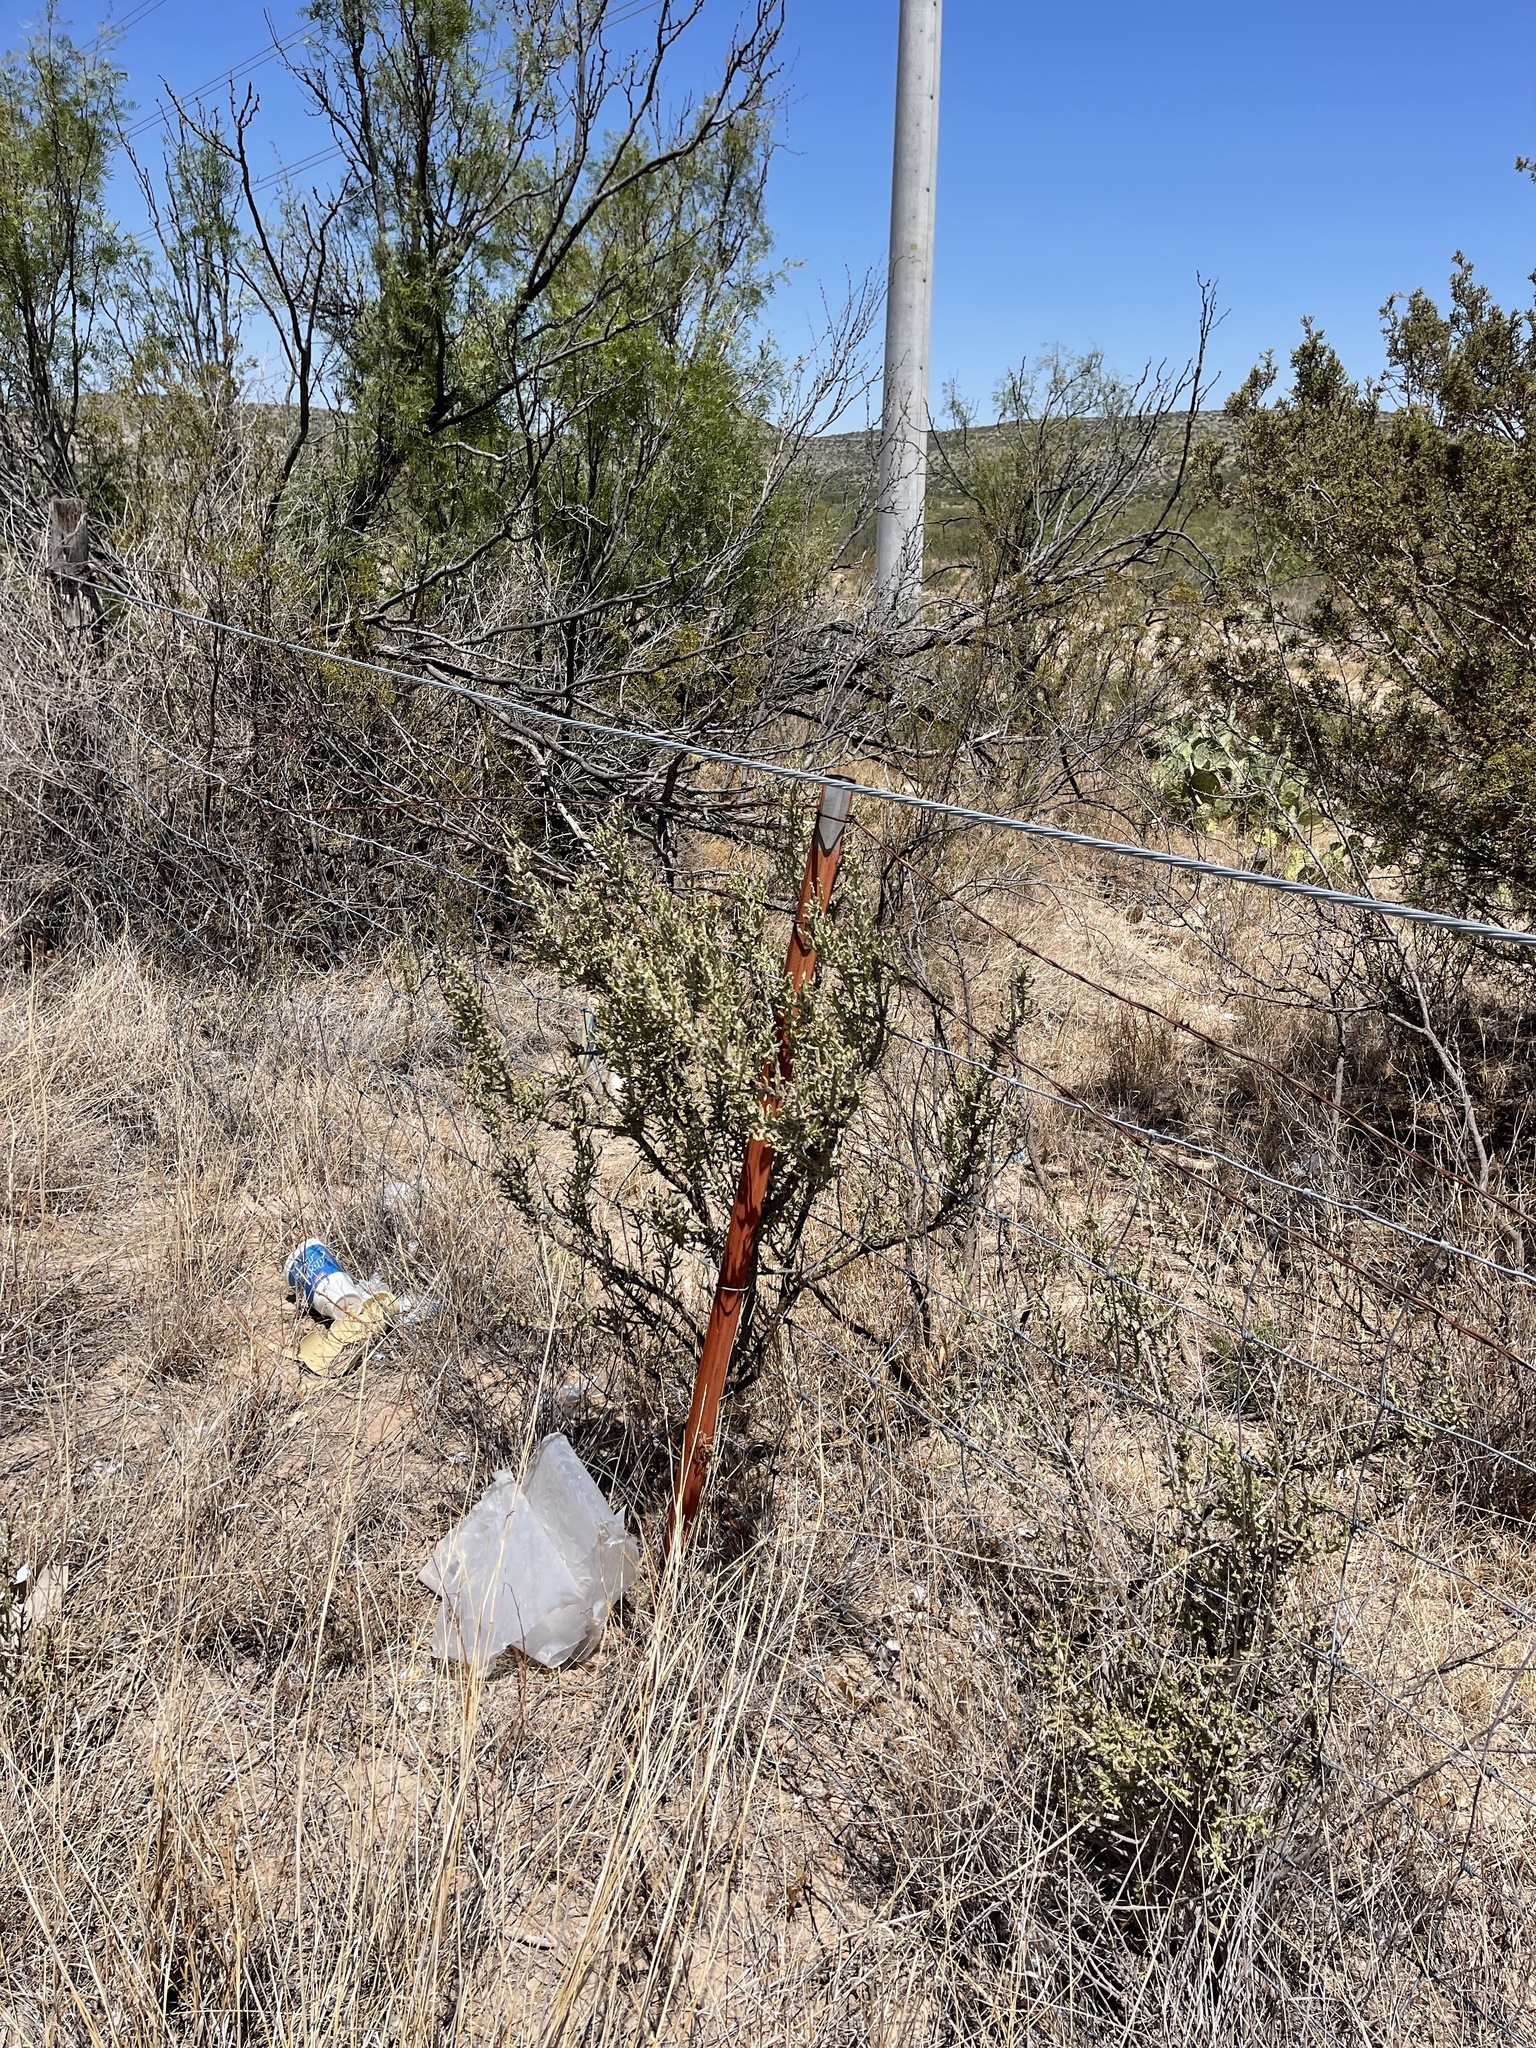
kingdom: Plantae
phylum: Tracheophyta
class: Magnoliopsida
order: Caryophyllales
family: Cactaceae
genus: Cylindropuntia
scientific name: Cylindropuntia leptocaulis
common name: Christmas cactus
